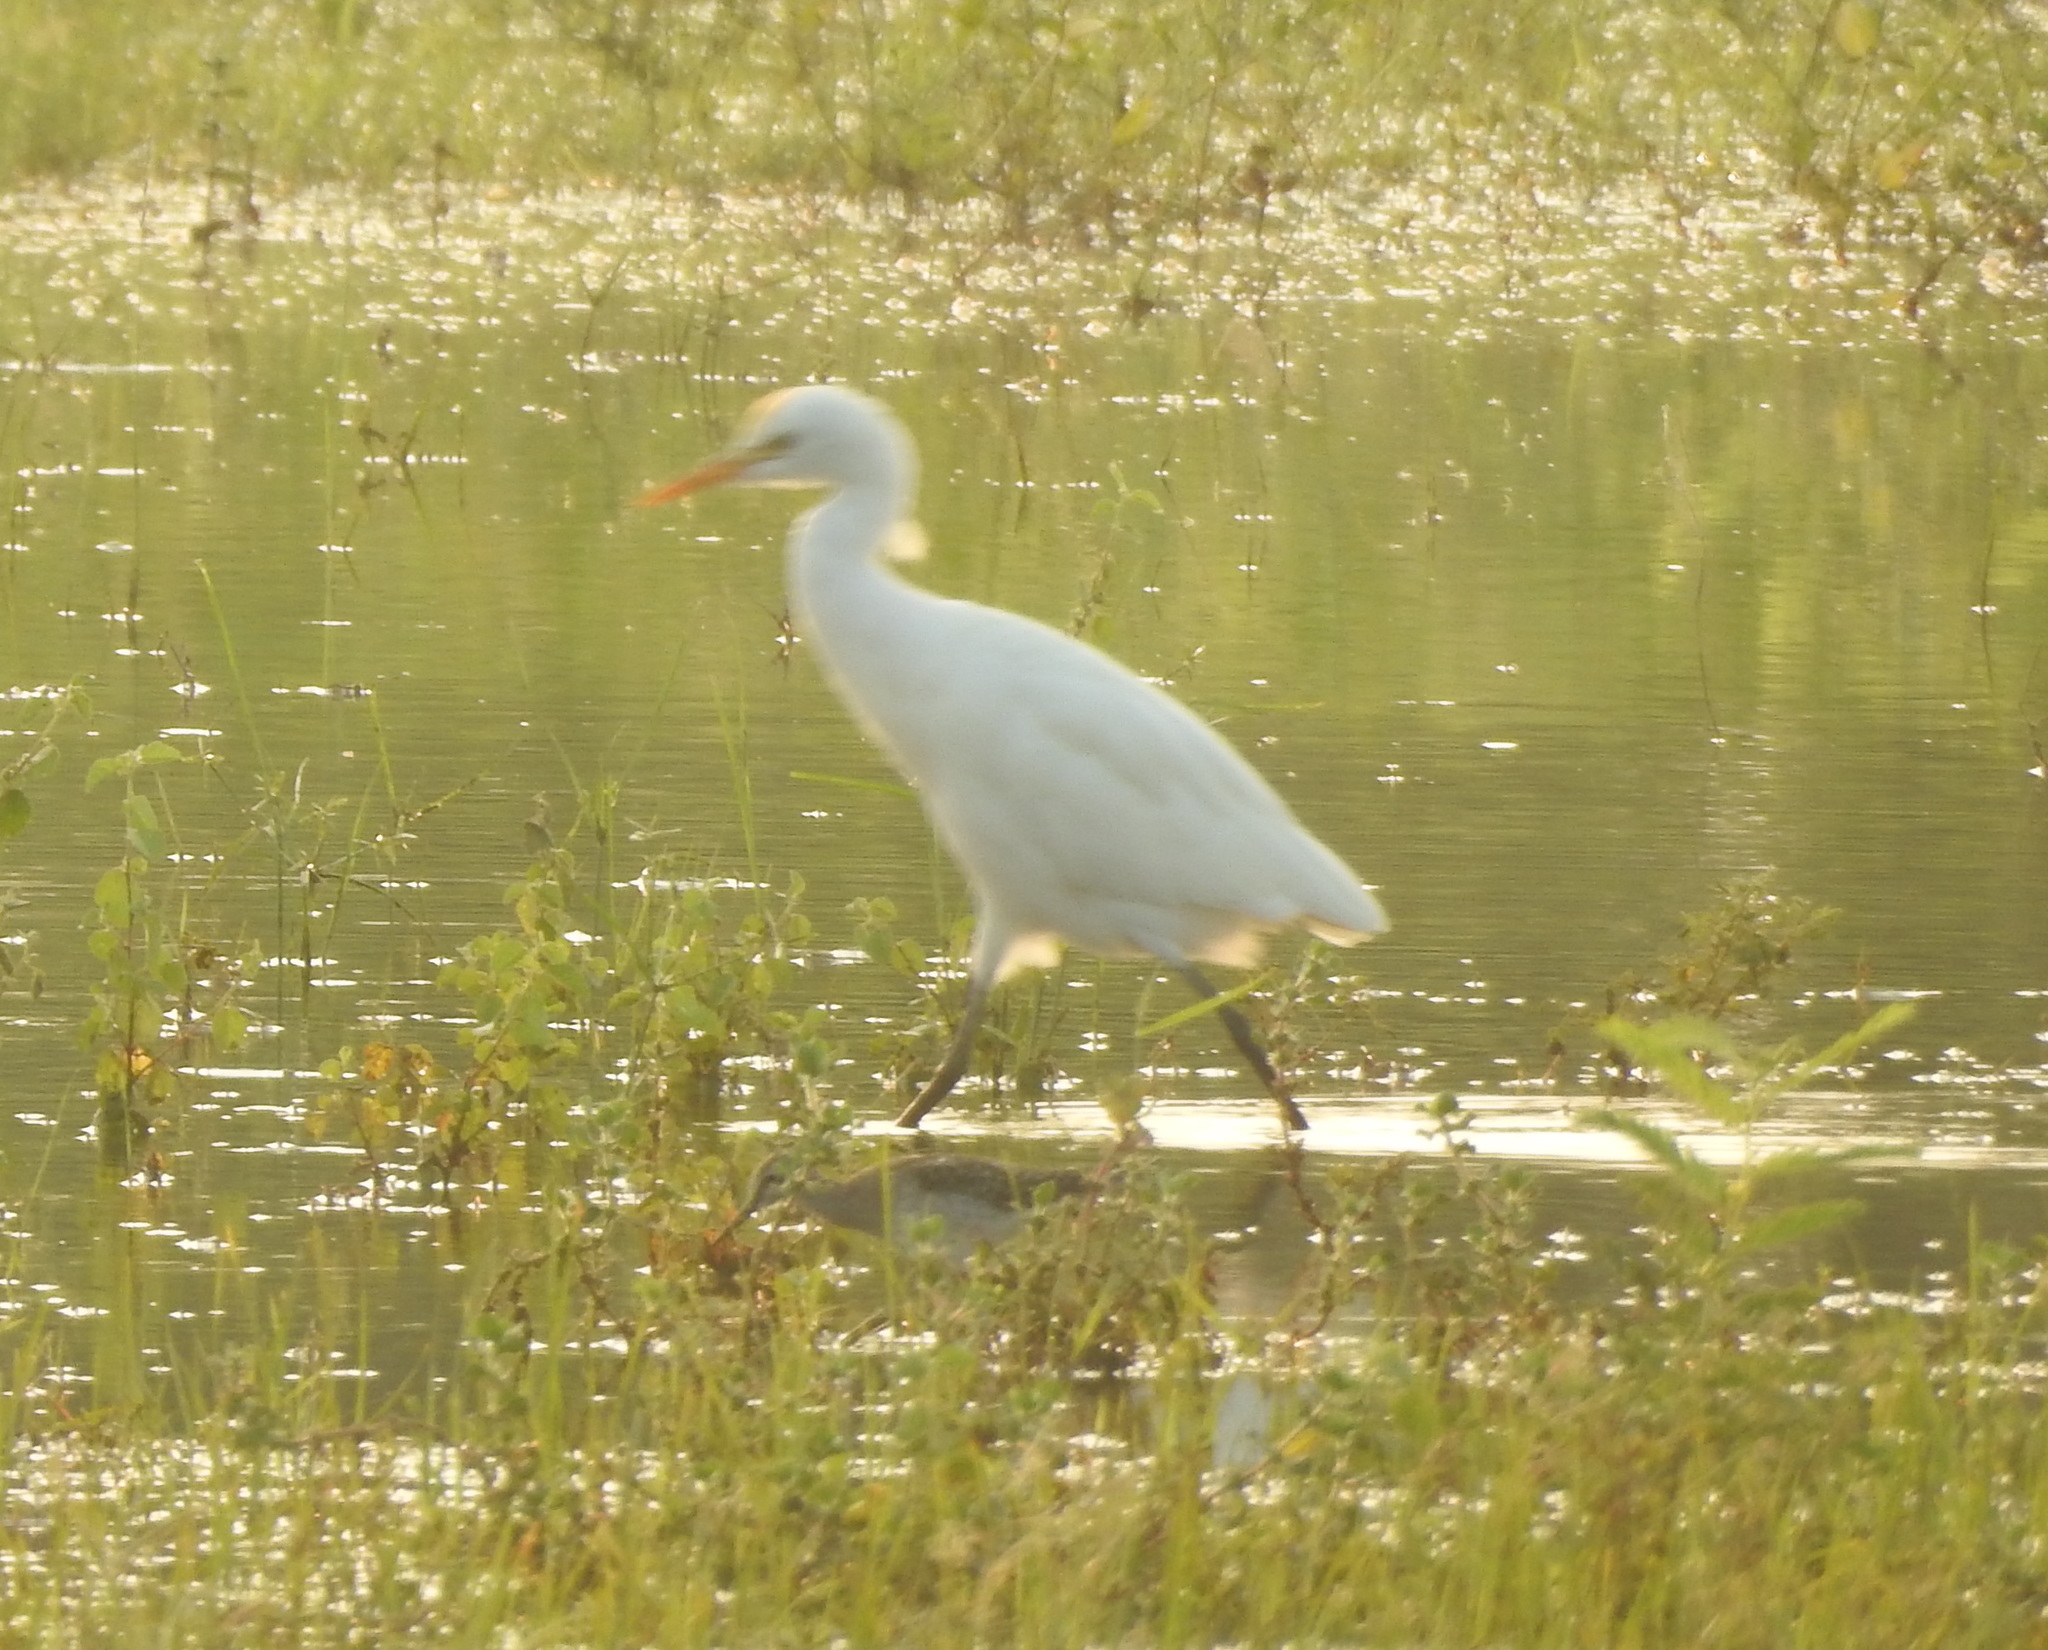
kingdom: Animalia
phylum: Chordata
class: Aves
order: Pelecaniformes
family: Ardeidae
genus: Bubulcus
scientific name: Bubulcus coromandus
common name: Eastern cattle egret
